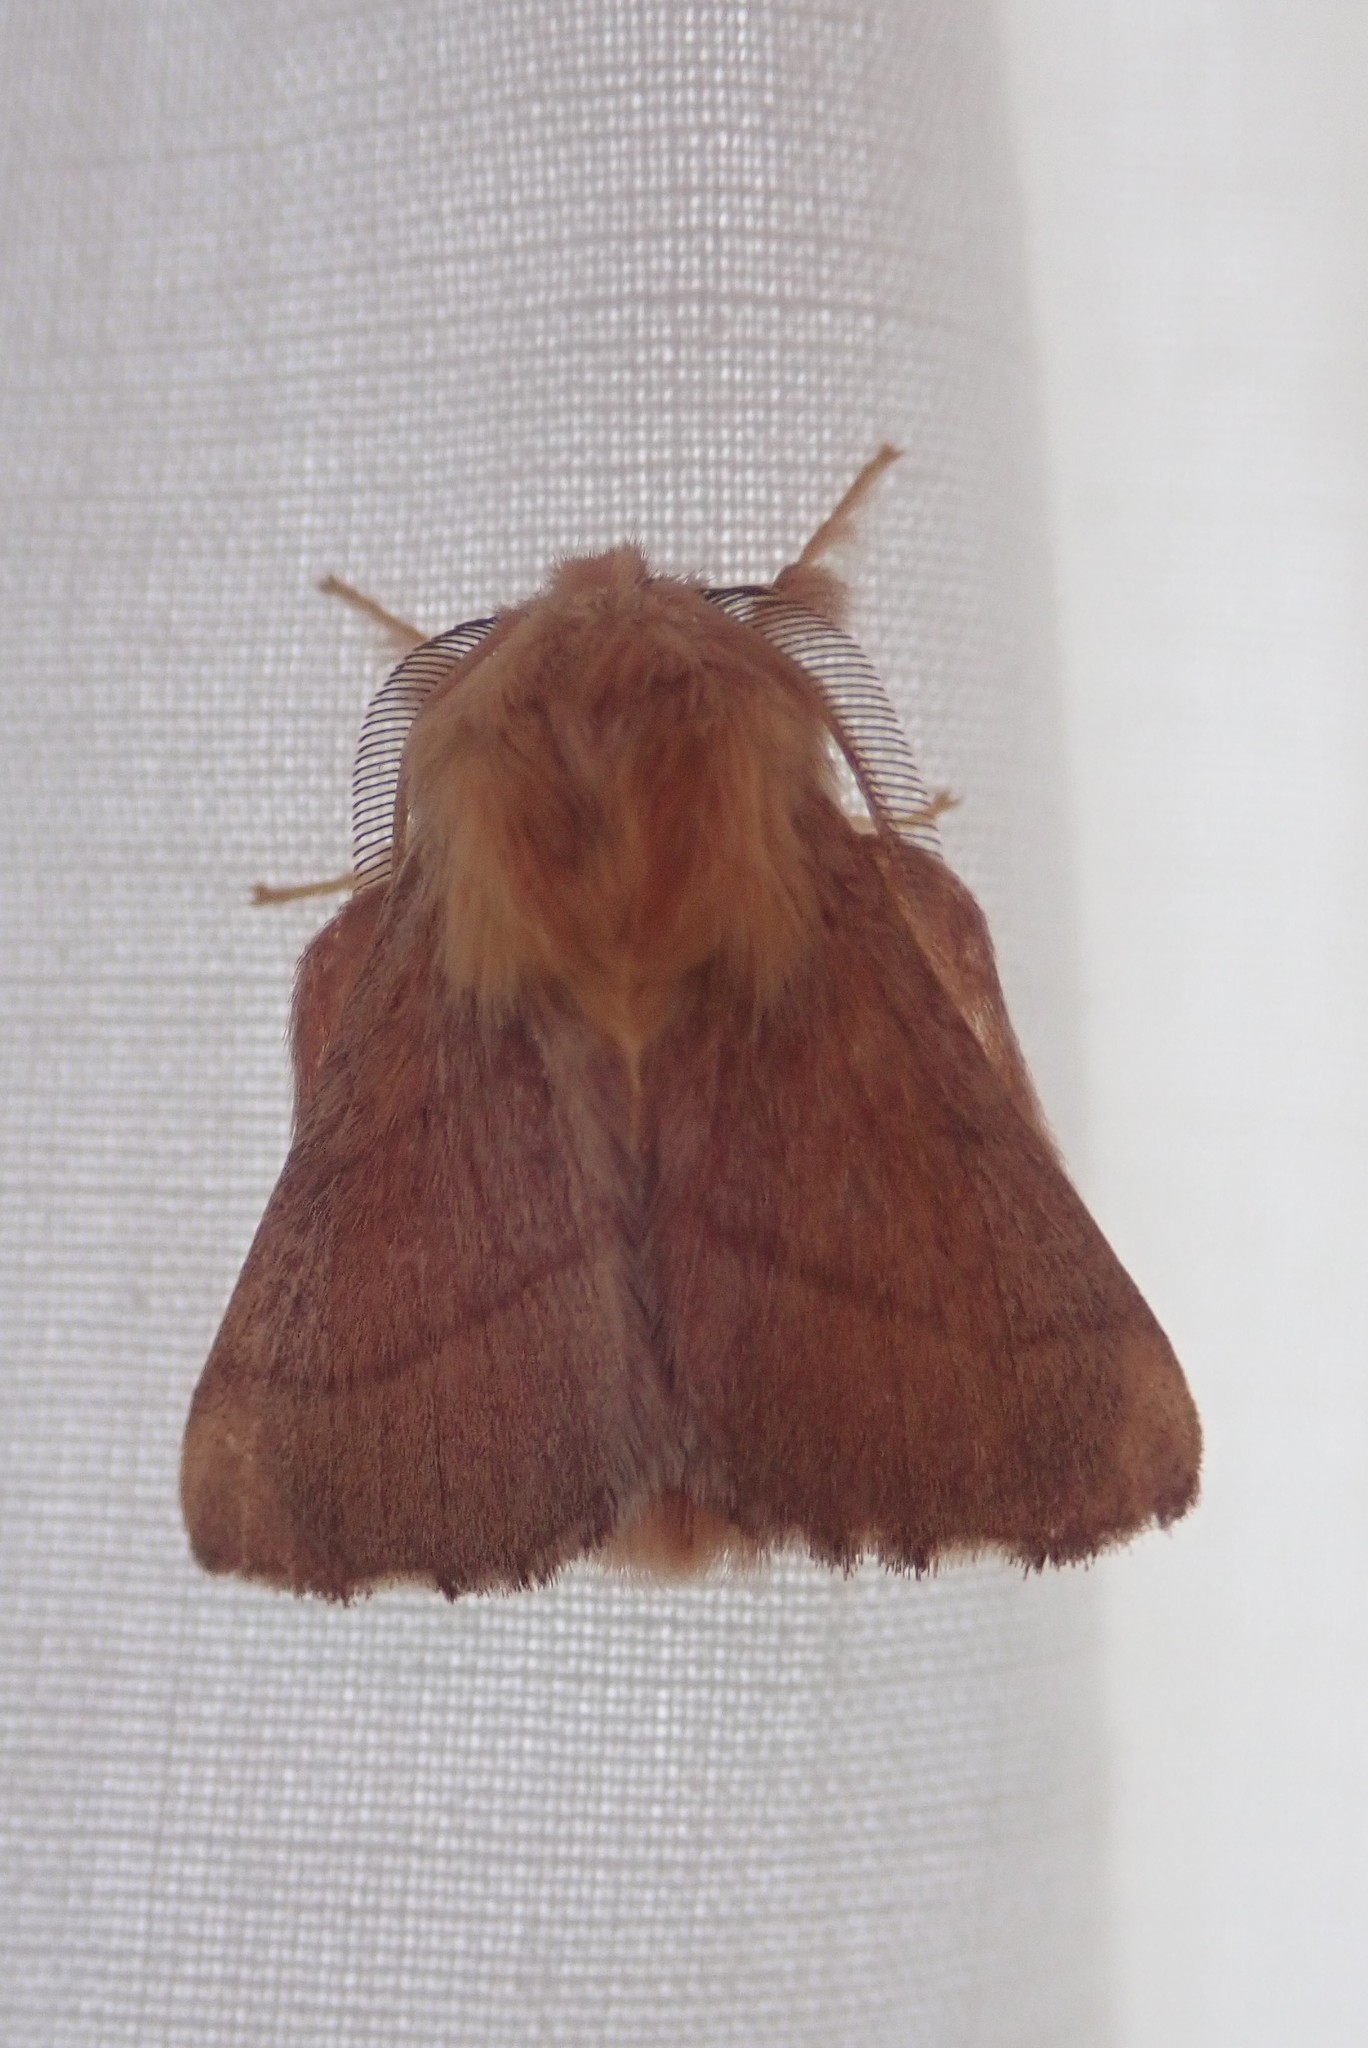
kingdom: Animalia
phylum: Arthropoda
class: Insecta
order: Lepidoptera
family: Lasiocampidae
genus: Malacosoma
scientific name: Malacosoma disstria
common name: Forest tent caterpillar
